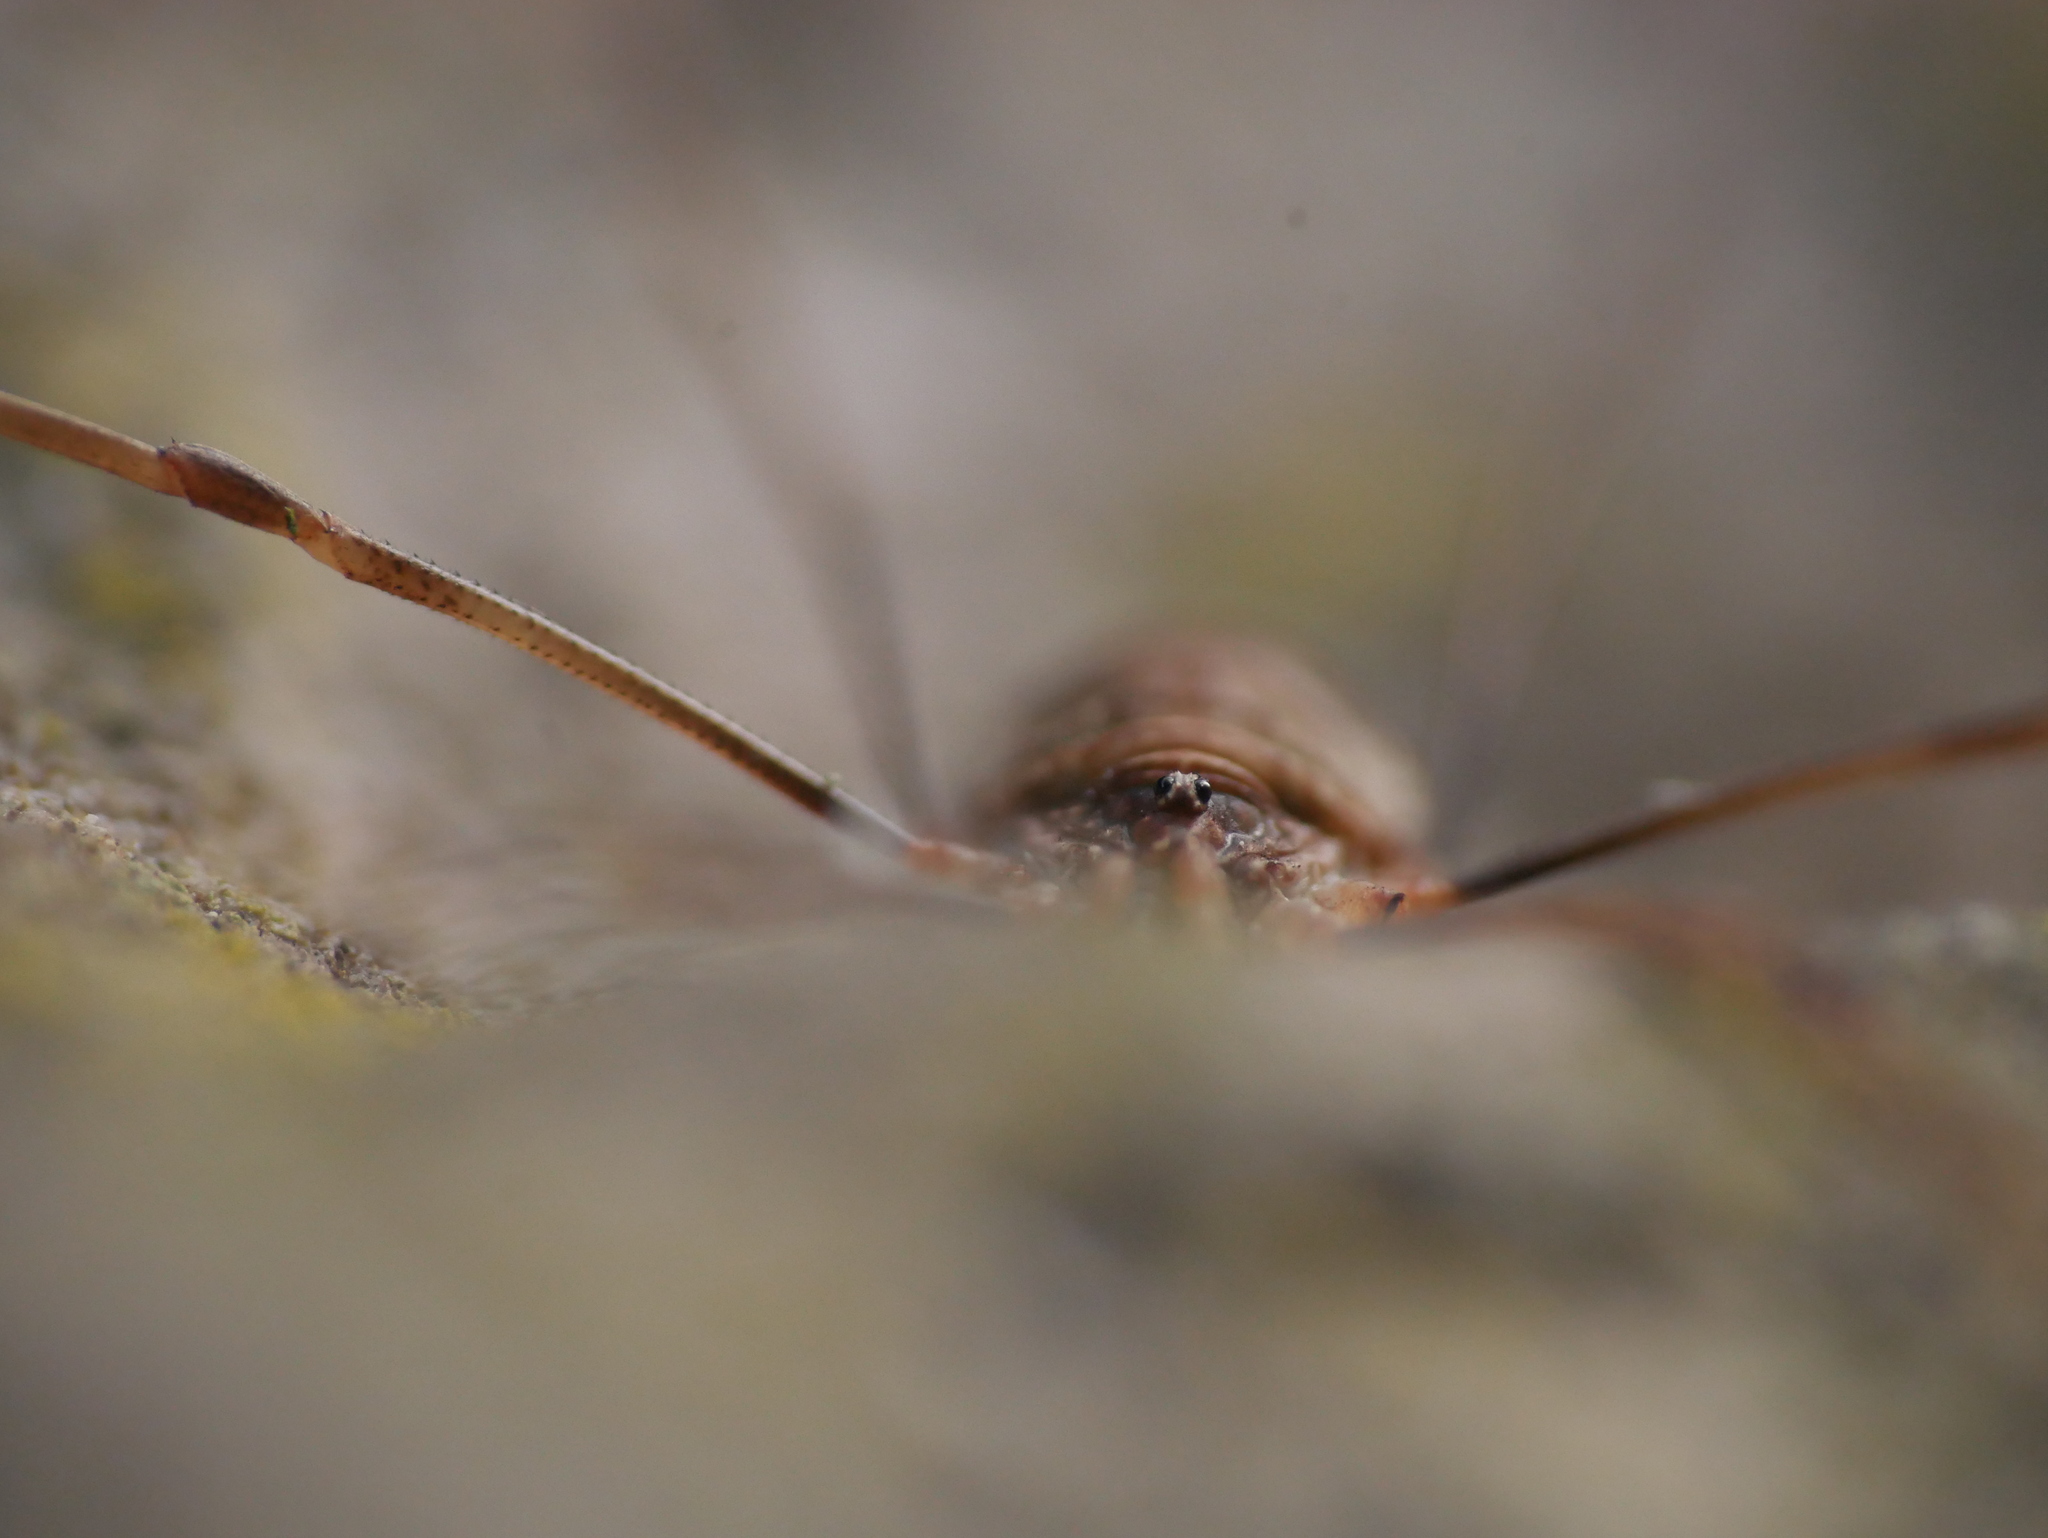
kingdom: Animalia
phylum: Arthropoda
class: Arachnida
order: Opiliones
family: Phalangiidae
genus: Opilio
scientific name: Opilio canestrinii
